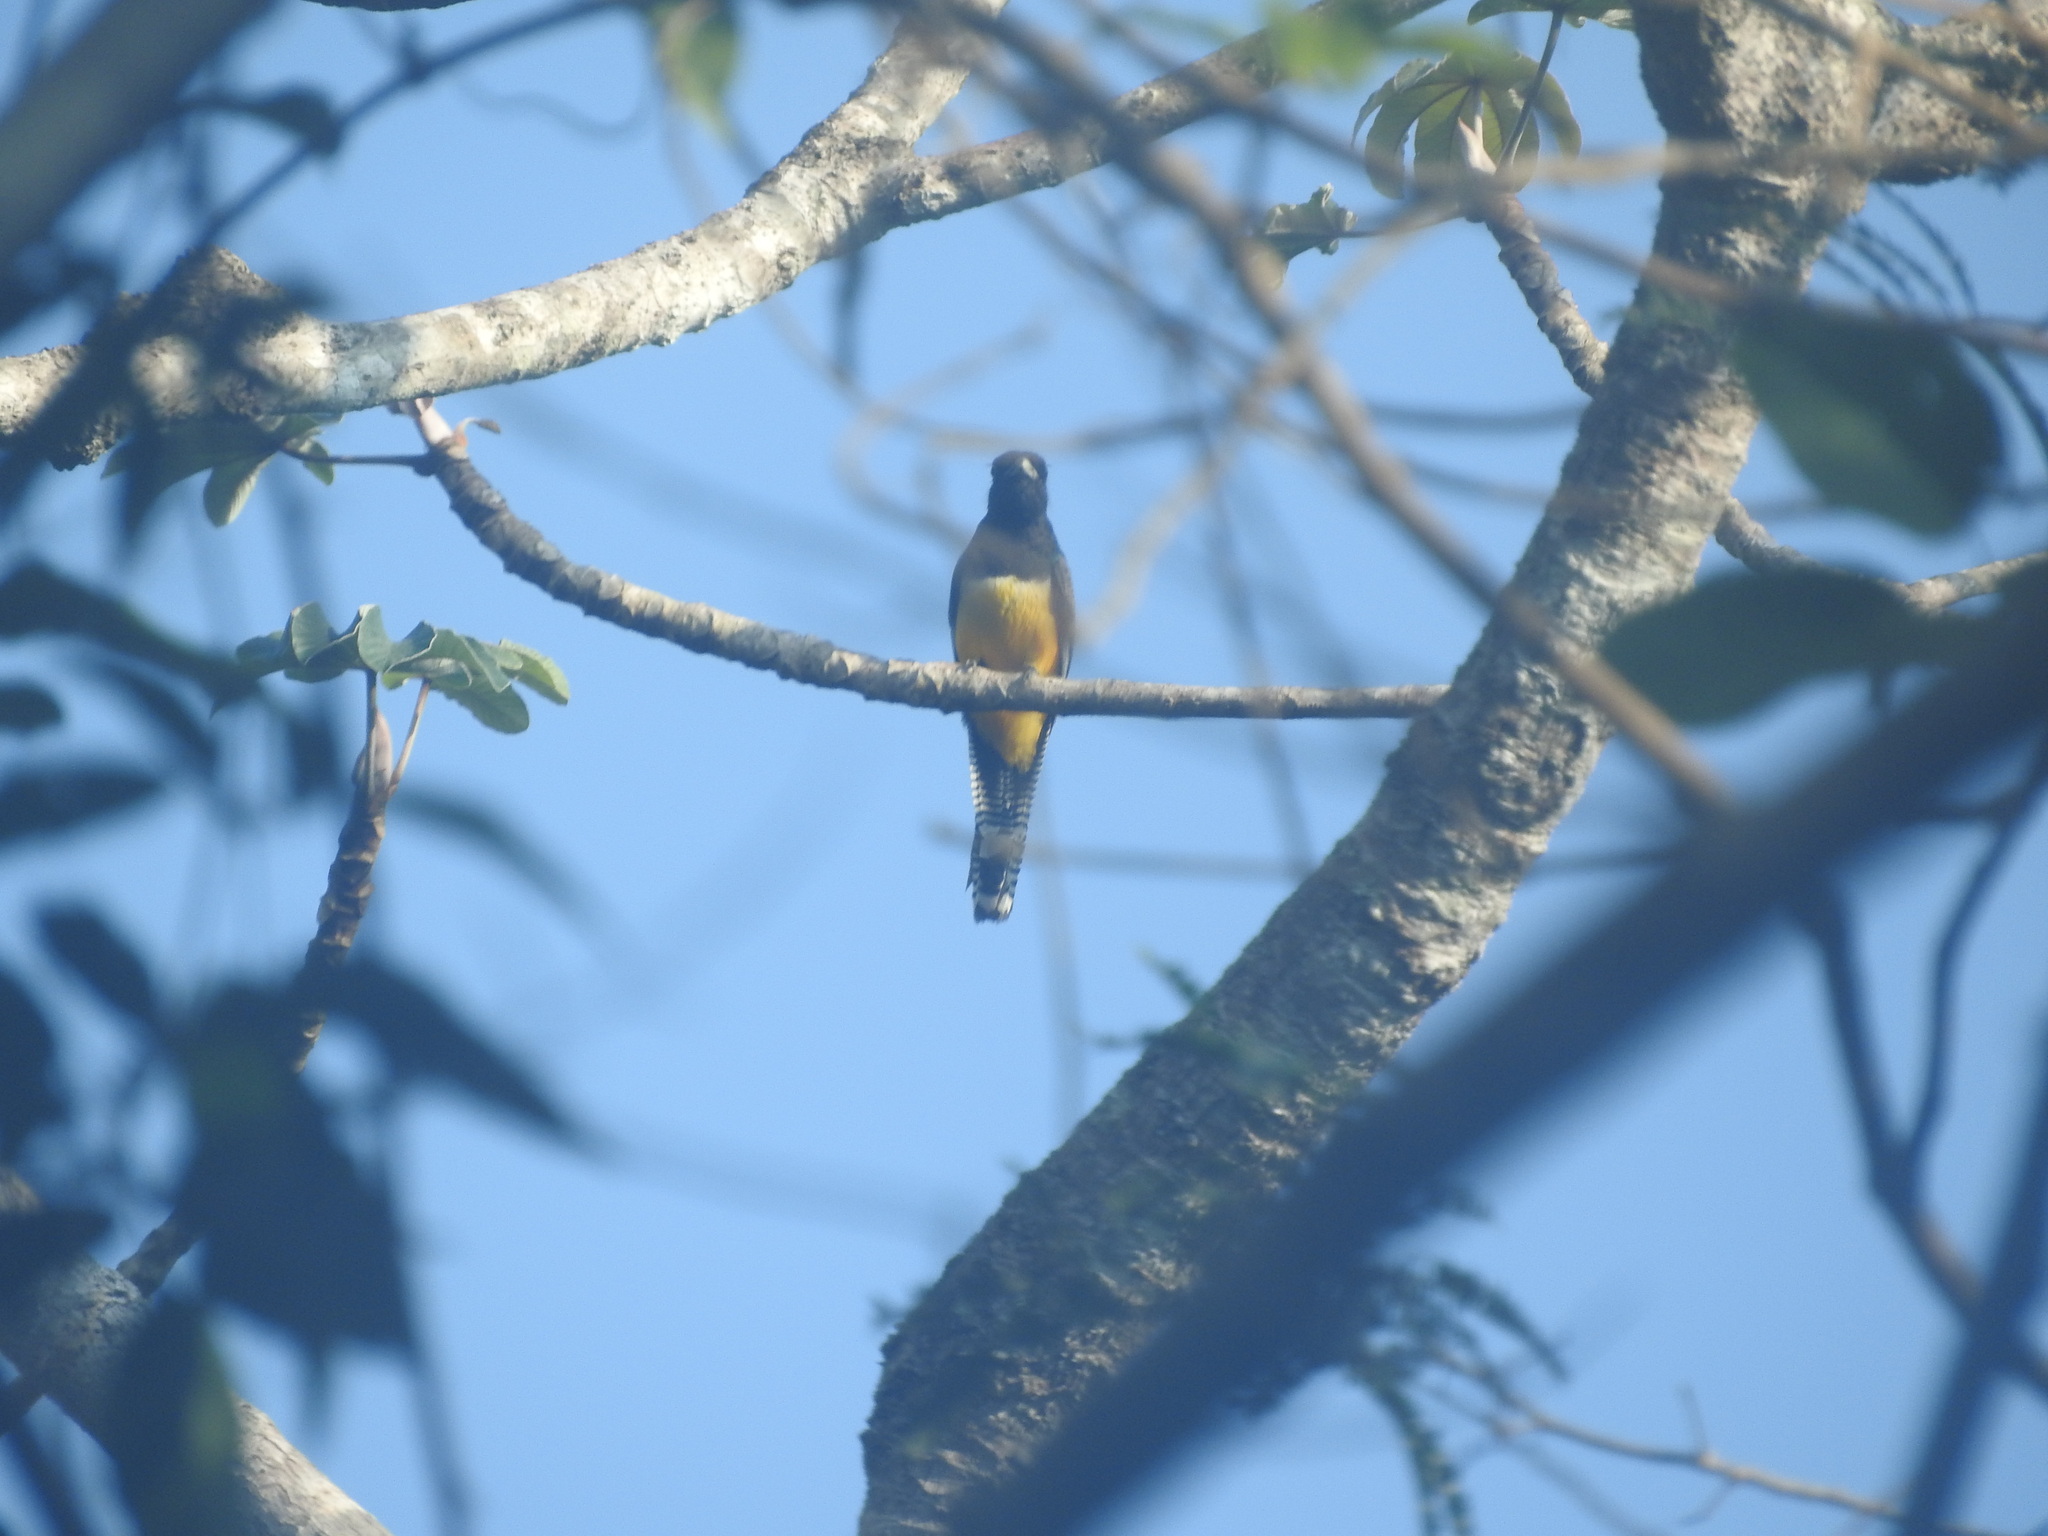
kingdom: Animalia
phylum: Chordata
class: Aves
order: Trogoniformes
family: Trogonidae
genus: Trogon
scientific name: Trogon melanocephalus
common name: Black-headed trogon
